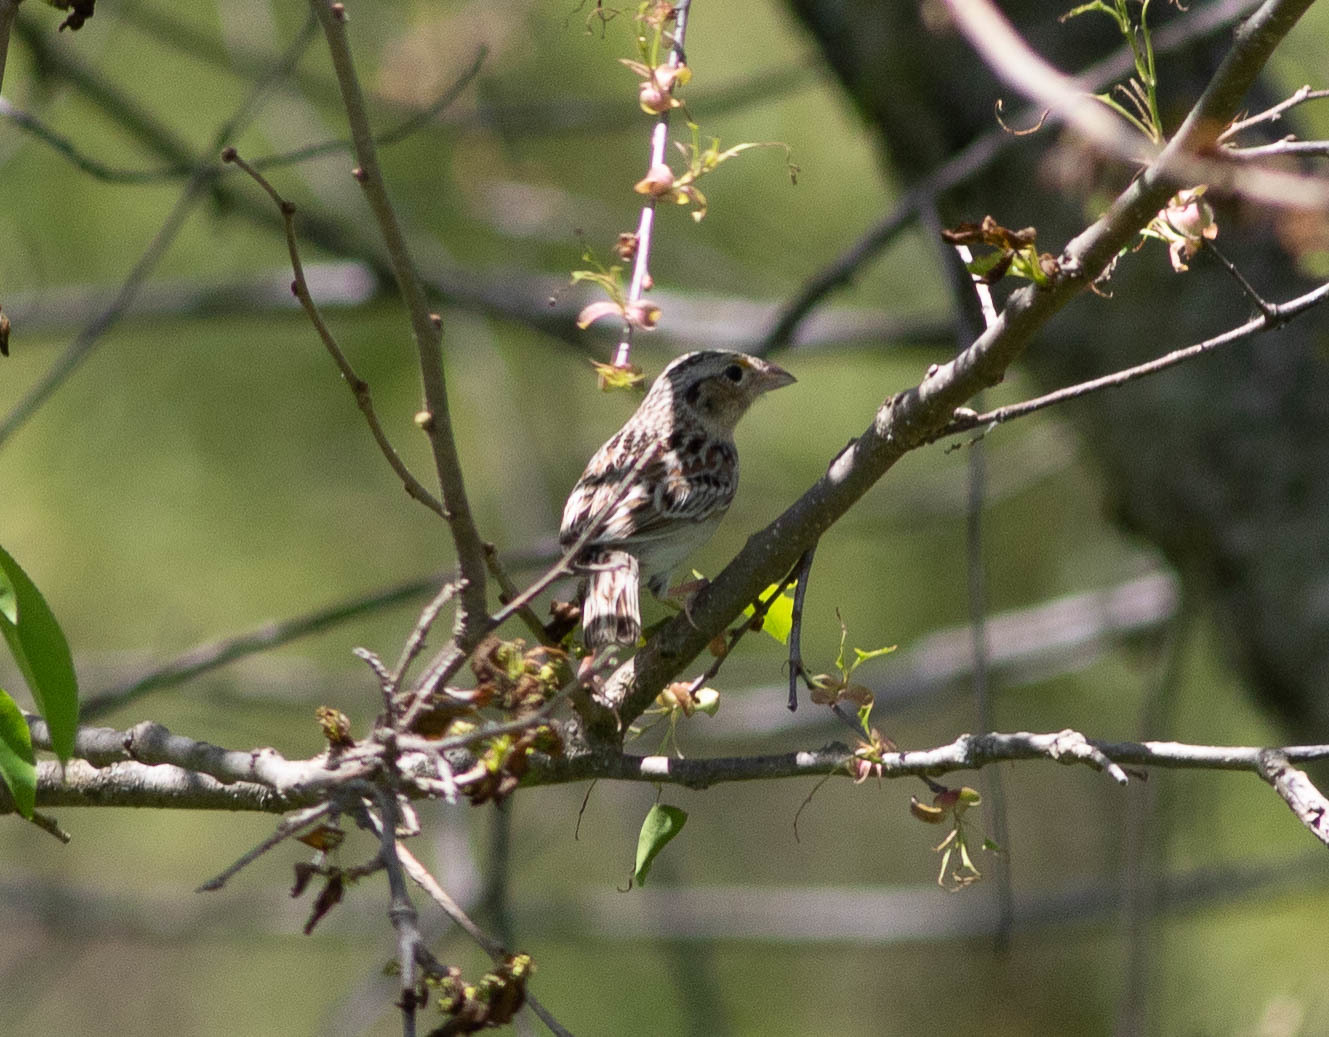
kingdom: Animalia
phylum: Chordata
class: Aves
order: Passeriformes
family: Passerellidae
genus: Ammodramus
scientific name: Ammodramus savannarum
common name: Grasshopper sparrow
